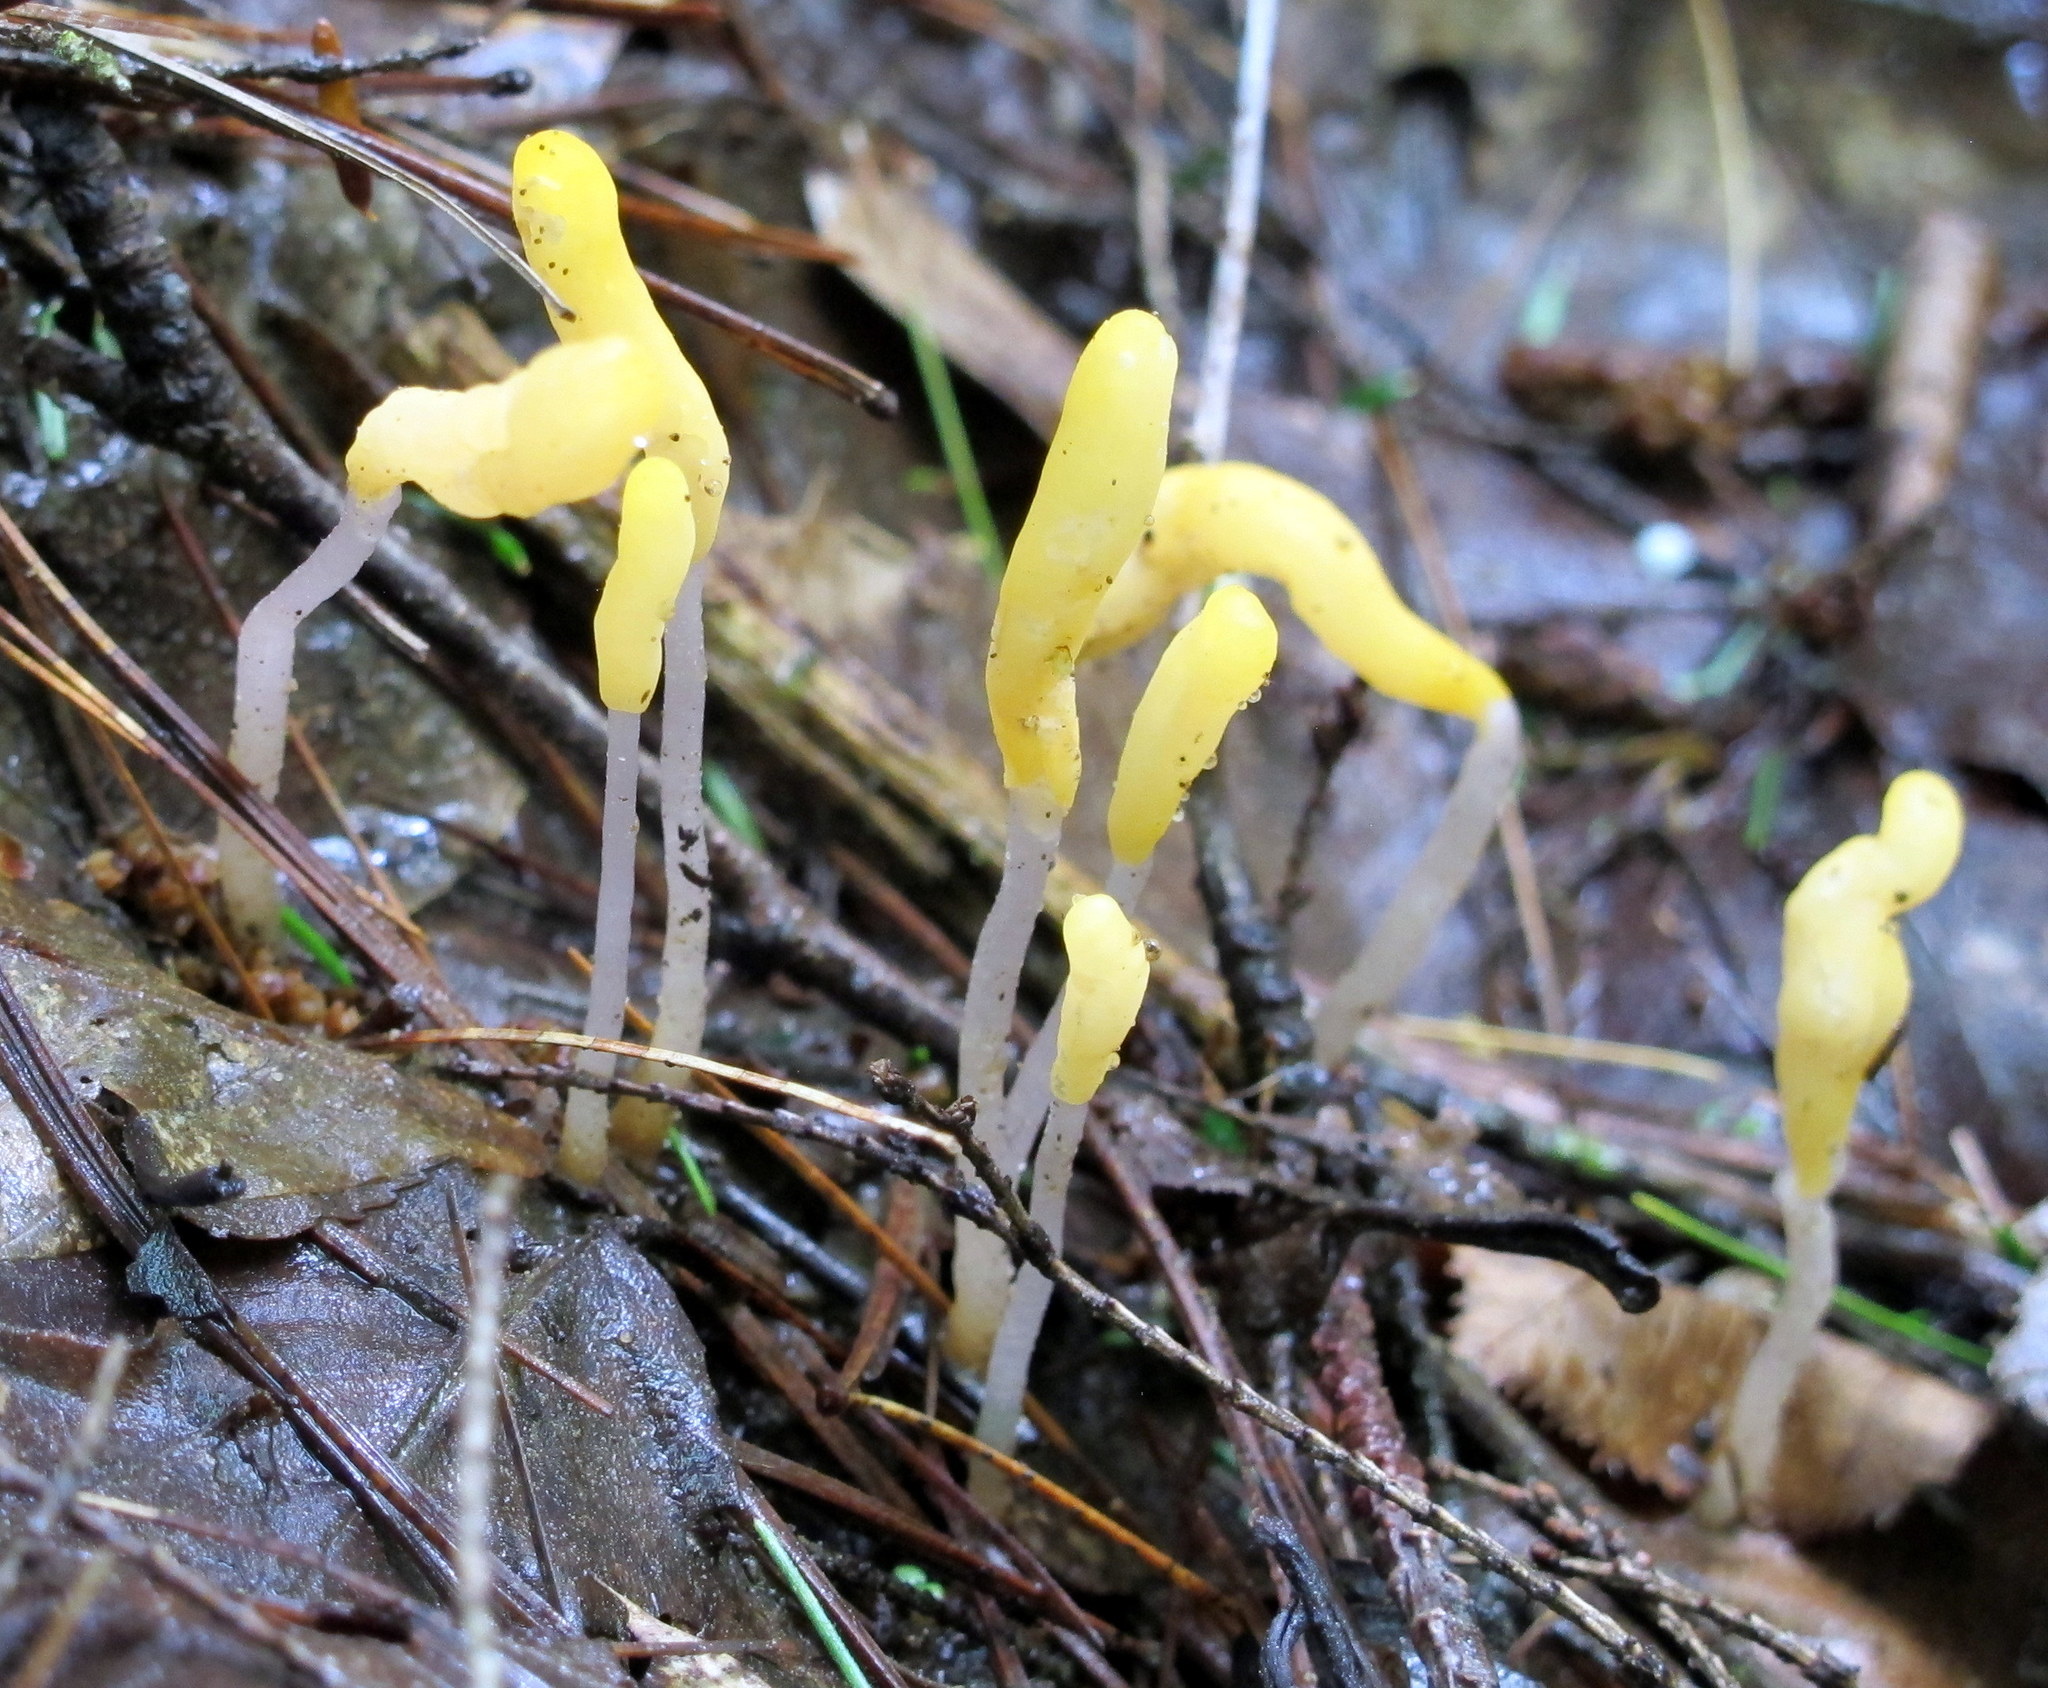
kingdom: Fungi
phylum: Ascomycota
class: Leotiomycetes
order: Helotiales
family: Sclerotiniaceae
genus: Mitrula
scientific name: Mitrula elegans
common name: Swamp beacon
